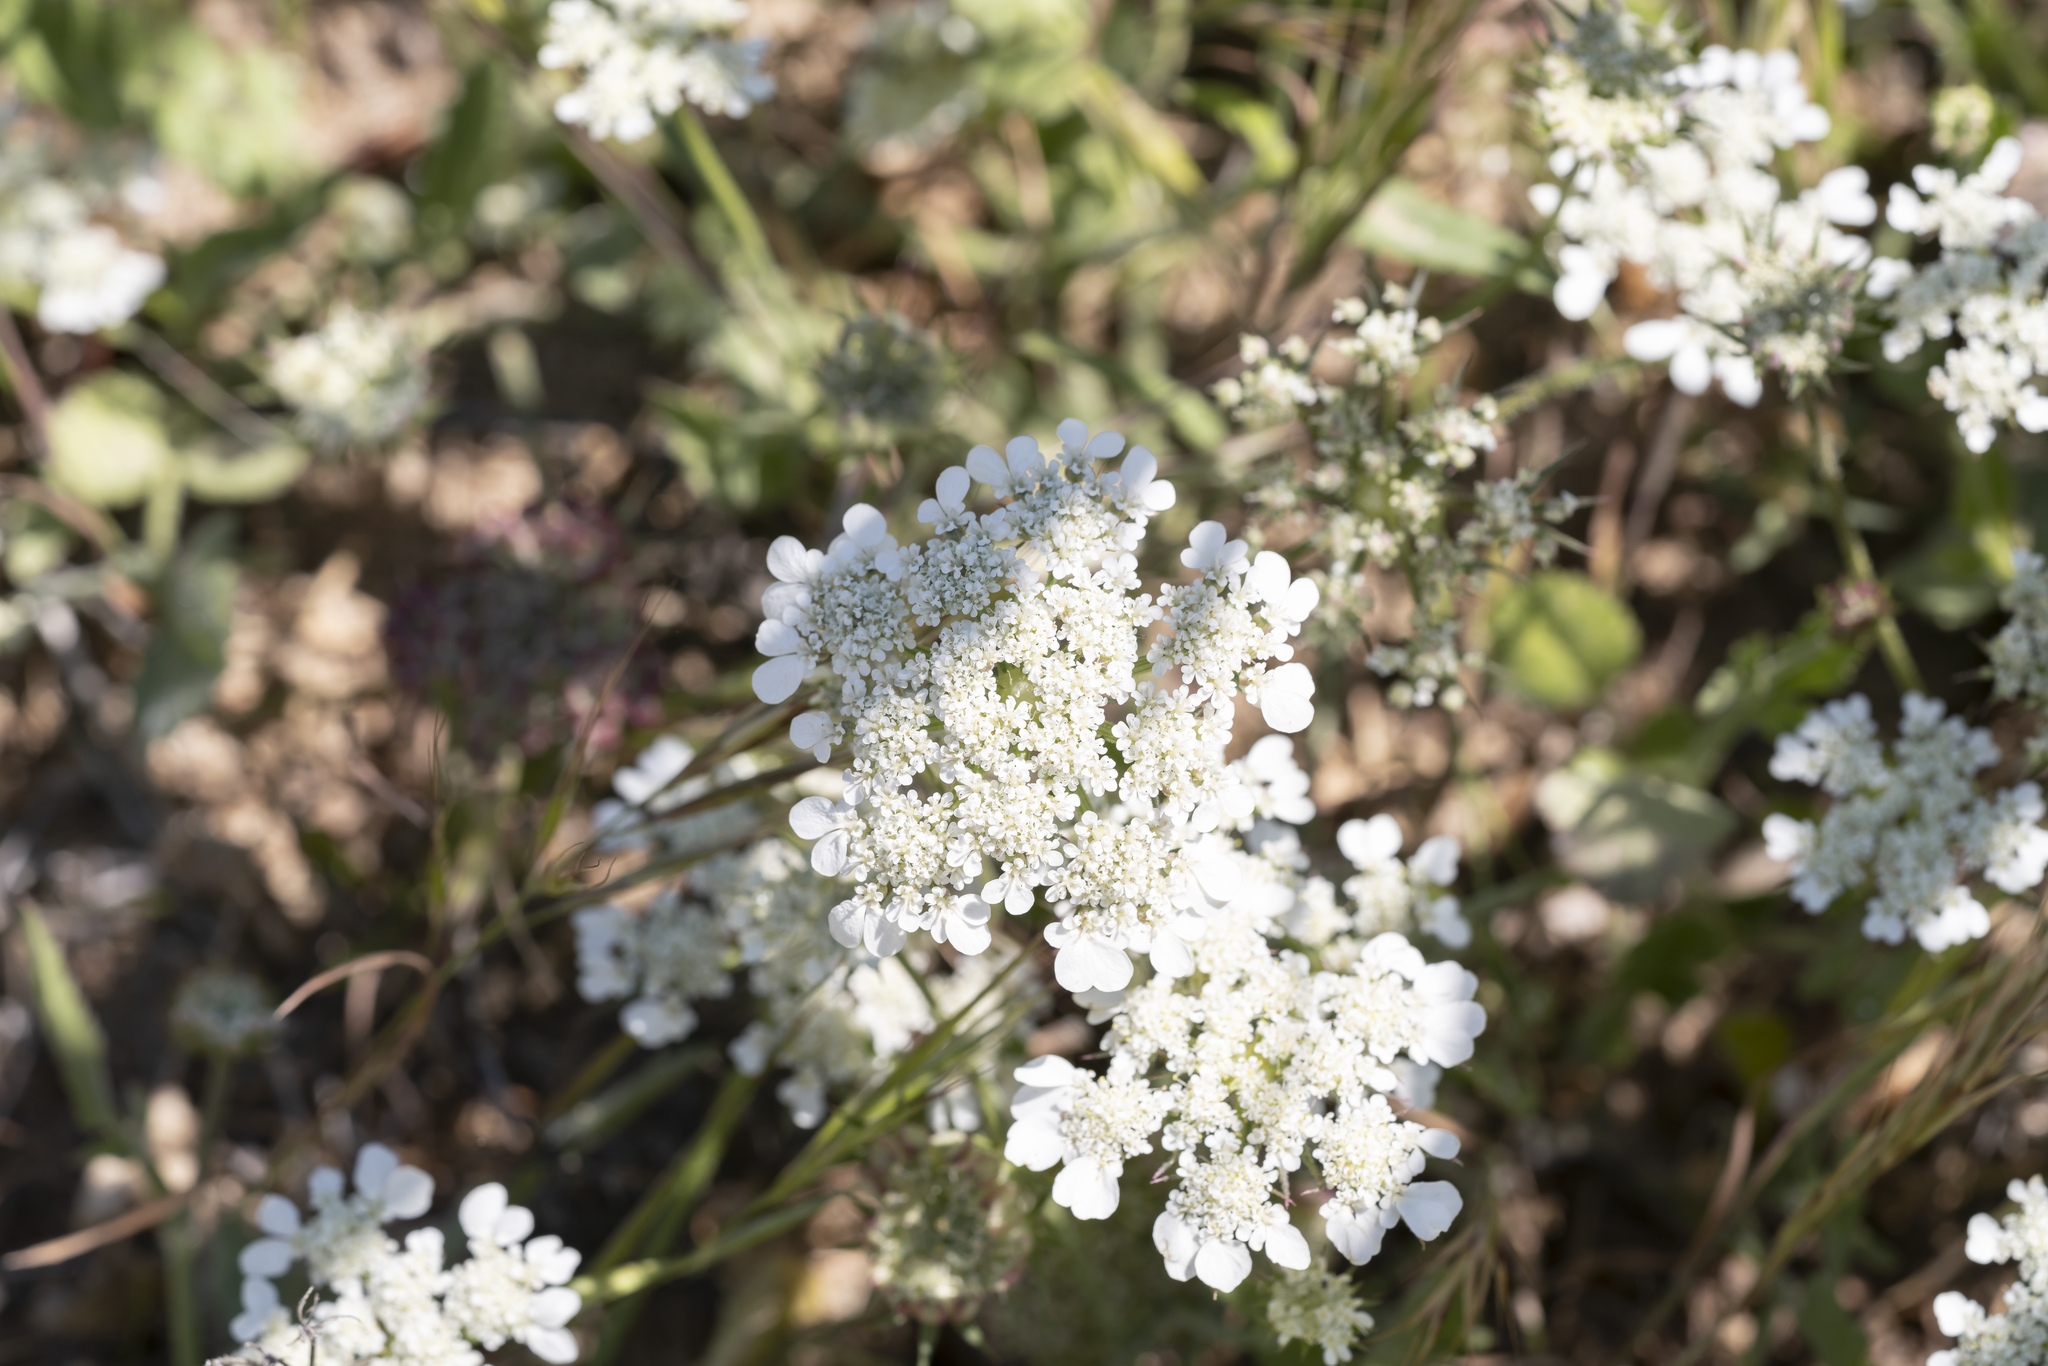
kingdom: Plantae
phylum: Tracheophyta
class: Magnoliopsida
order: Apiales
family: Apiaceae
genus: Tordylium
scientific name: Tordylium aegaeum
